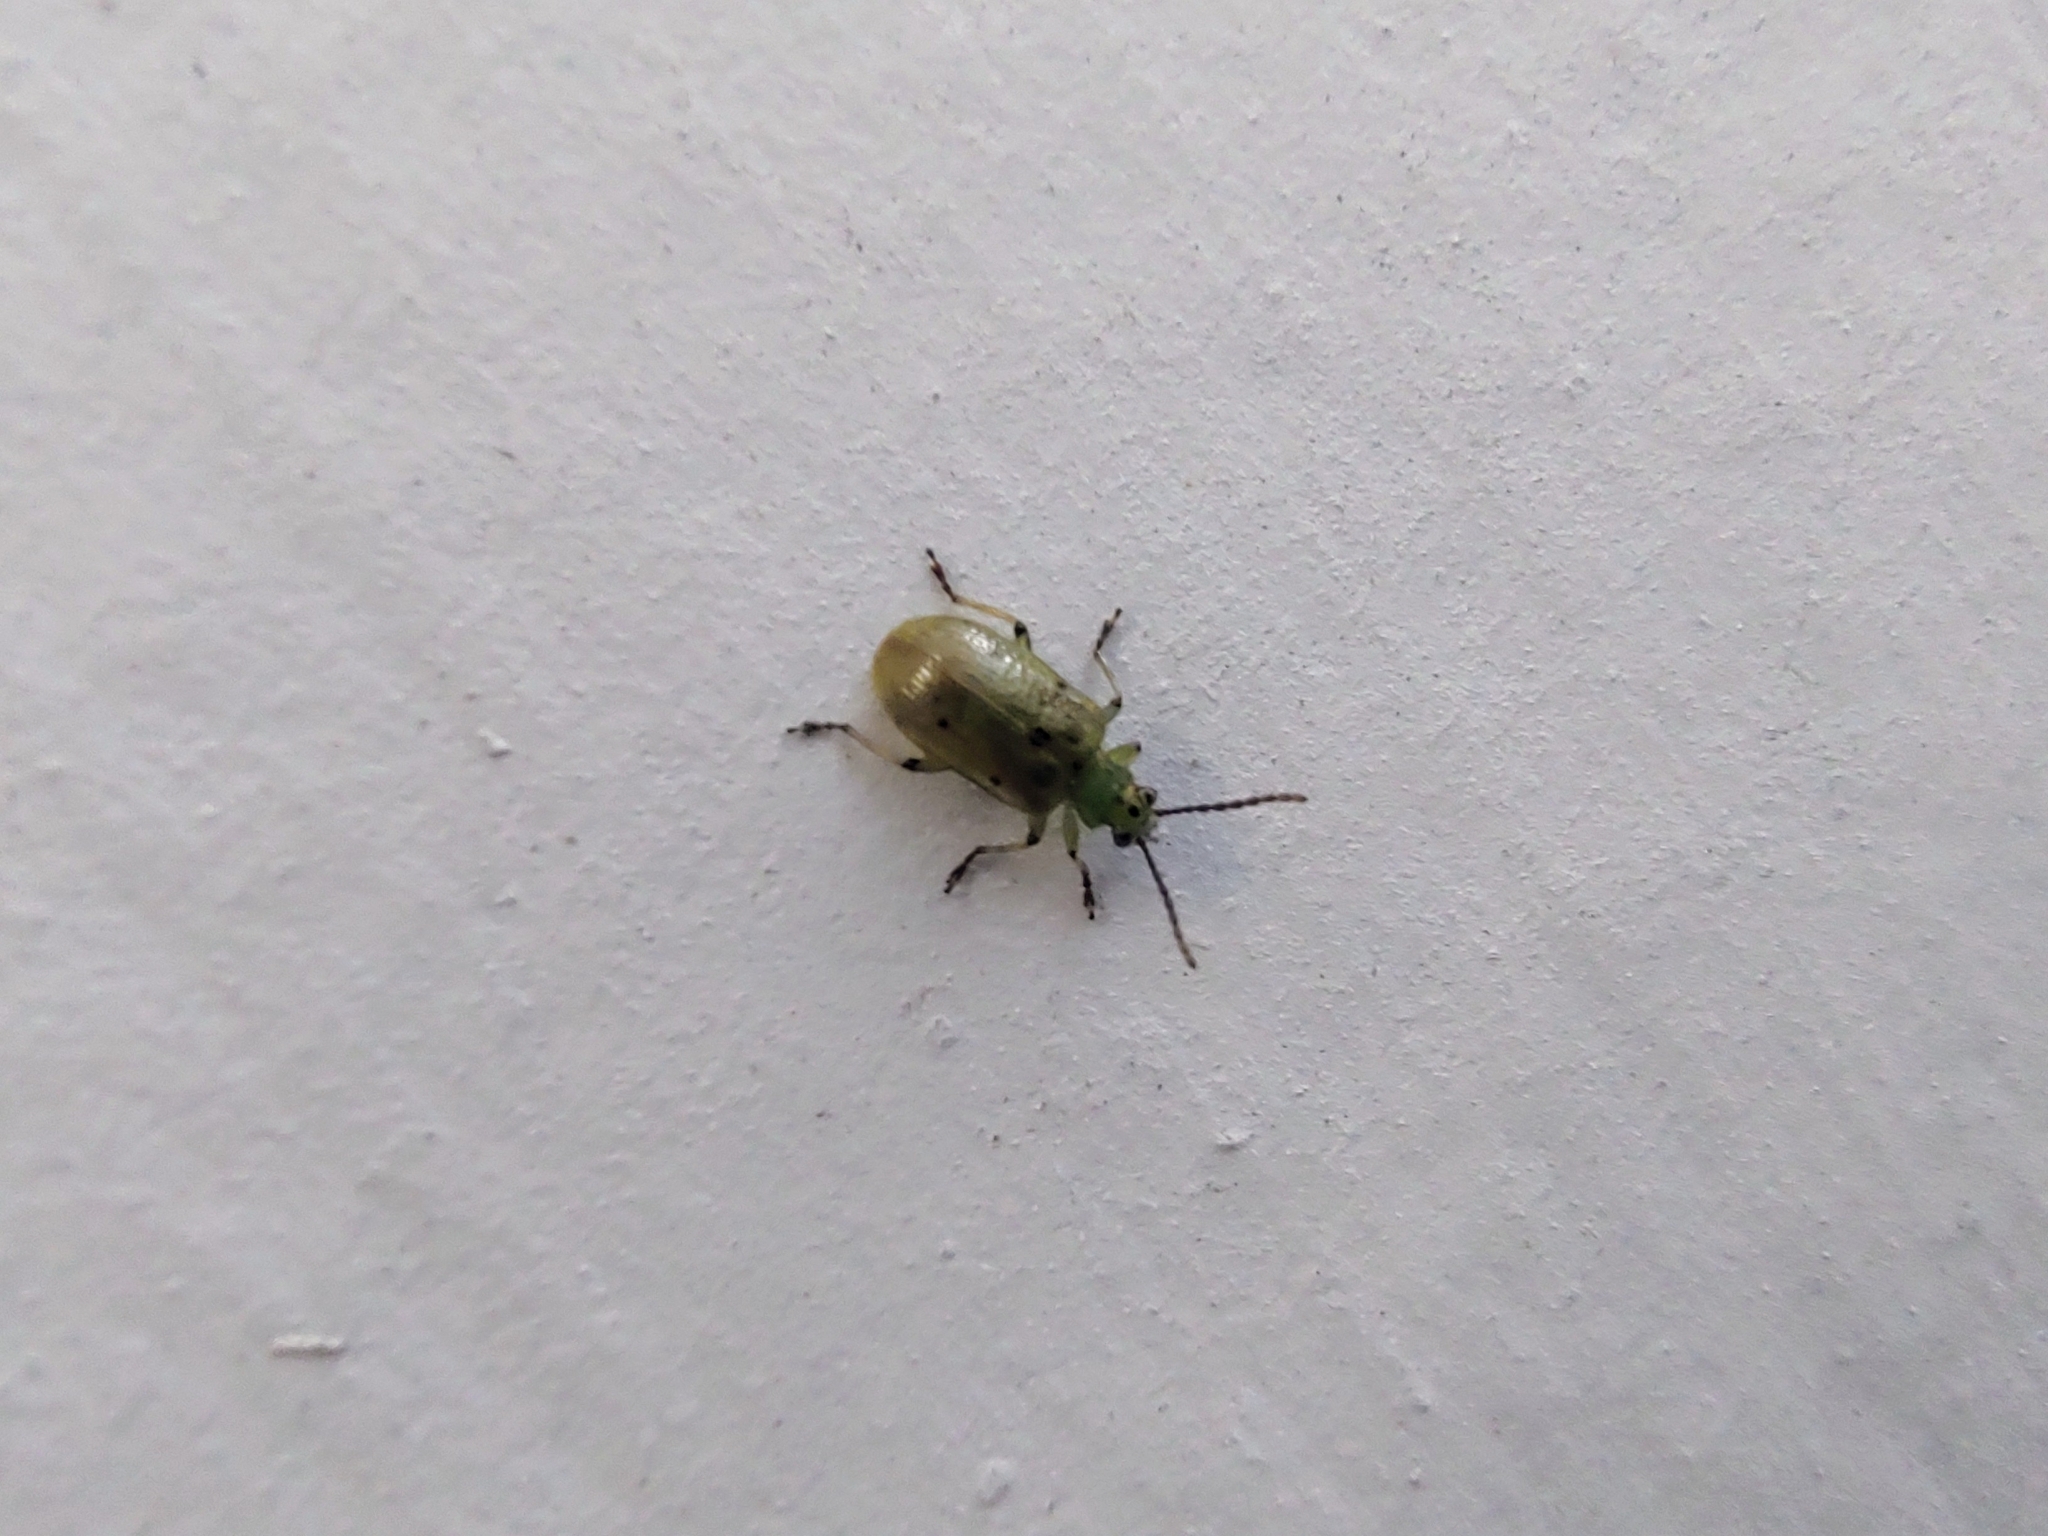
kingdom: Animalia
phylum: Arthropoda
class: Insecta
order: Coleoptera
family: Chrysomelidae
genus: Lema
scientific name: Lema
